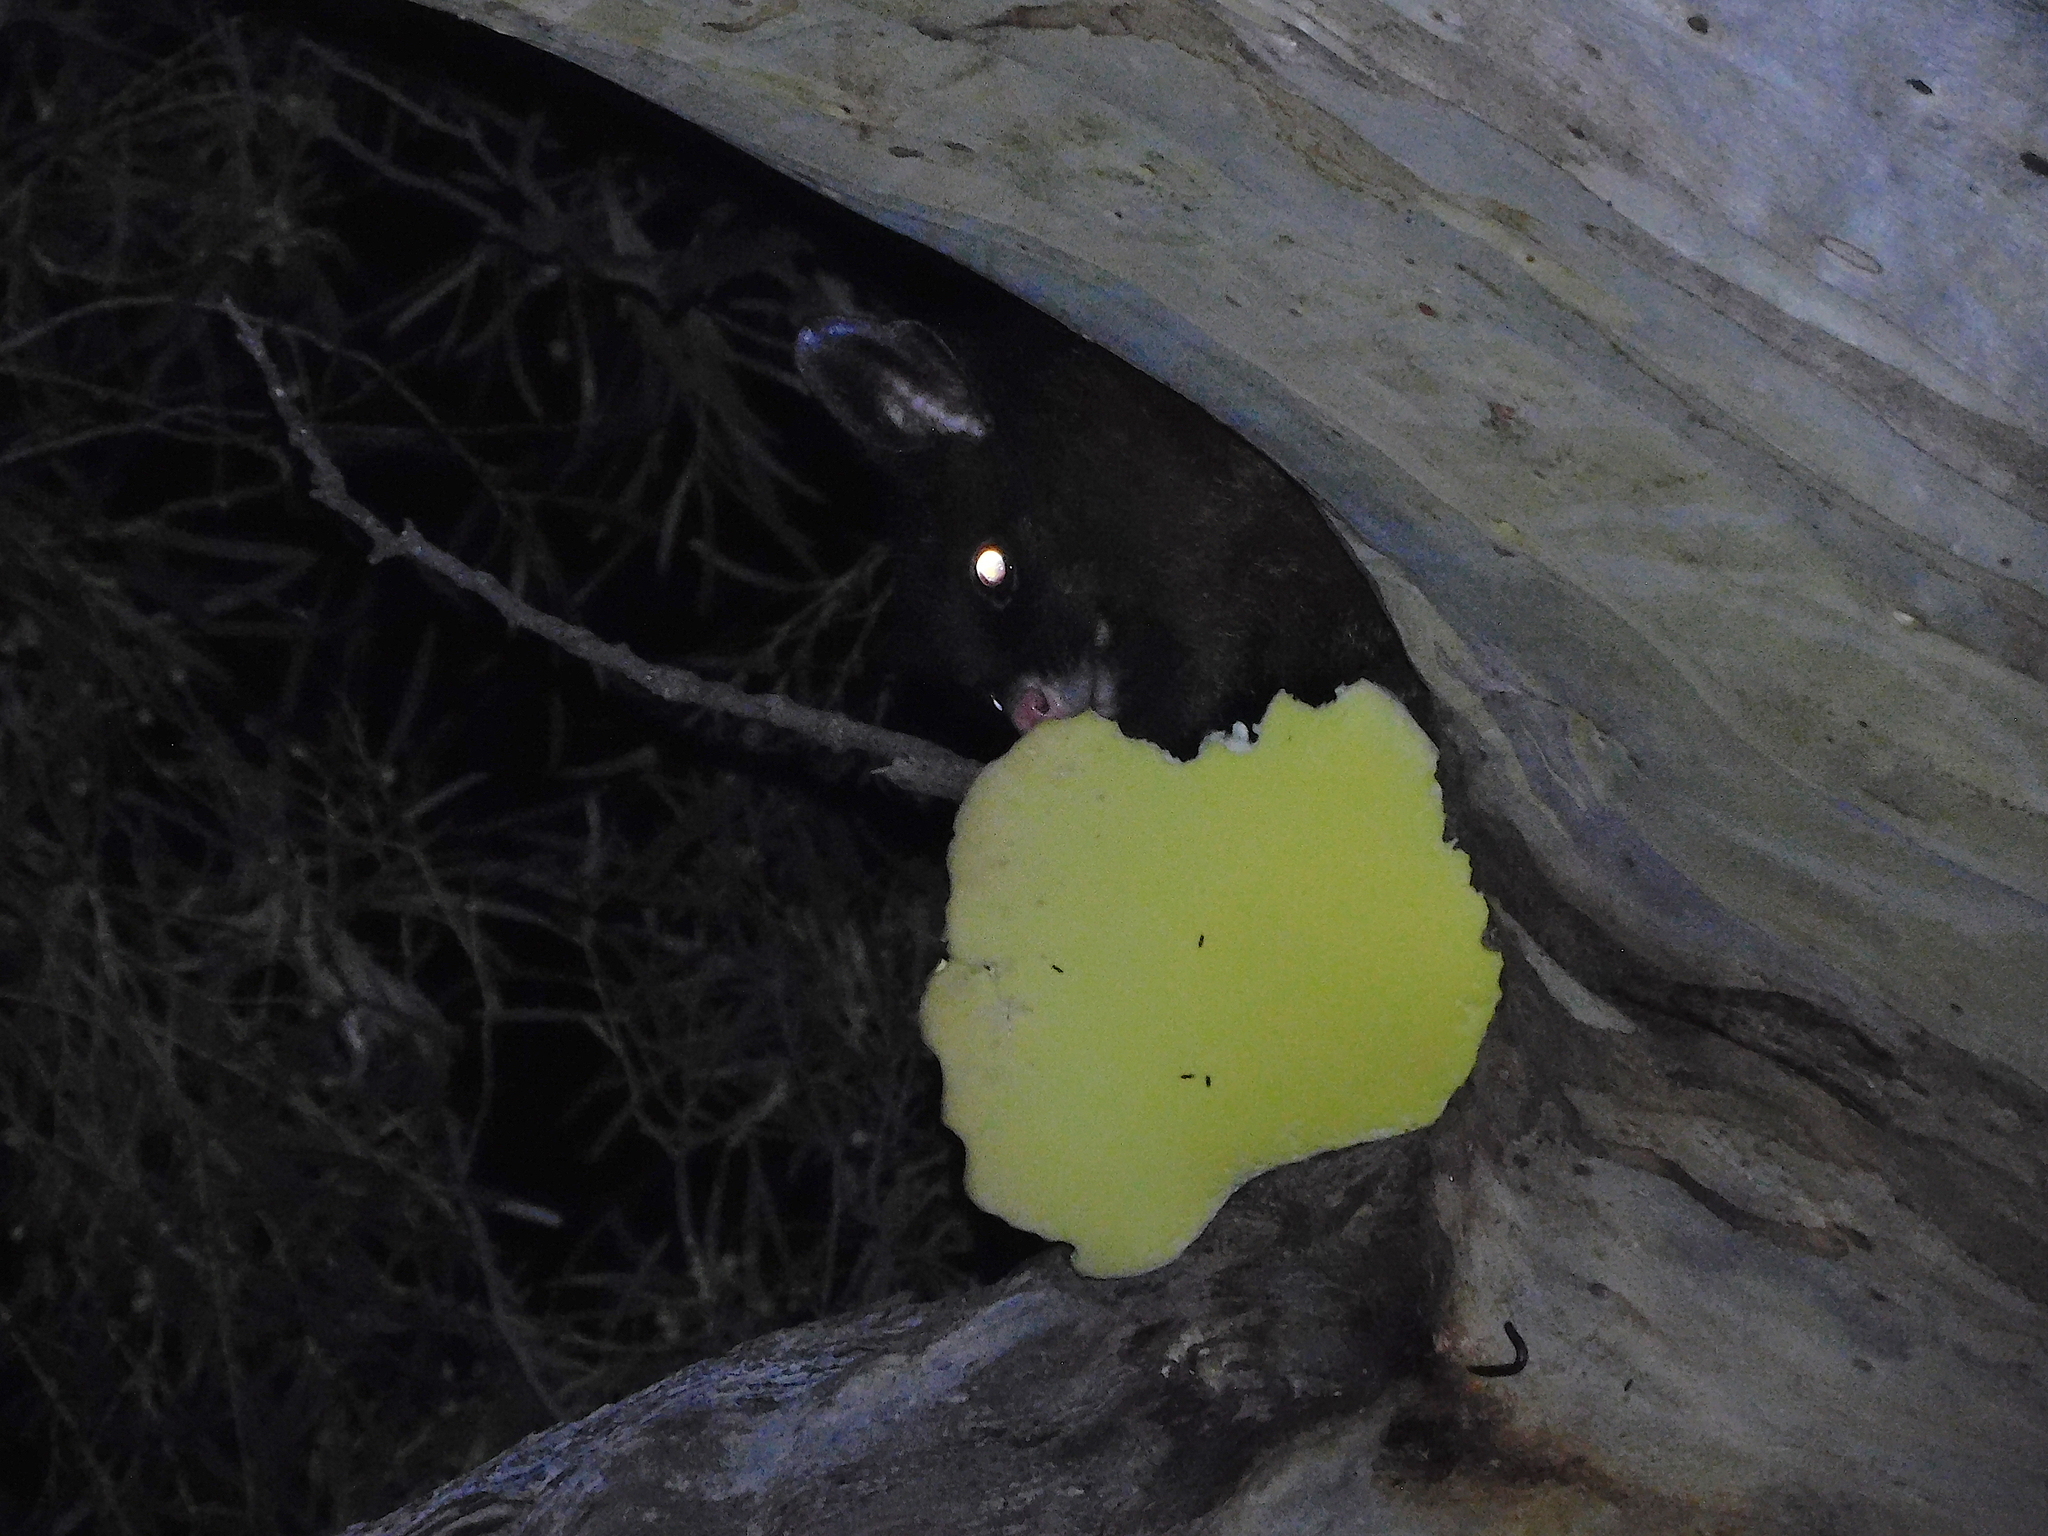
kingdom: Animalia
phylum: Chordata
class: Mammalia
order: Diprotodontia
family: Phalangeridae
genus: Trichosurus
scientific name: Trichosurus vulpecula
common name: Common brushtail
